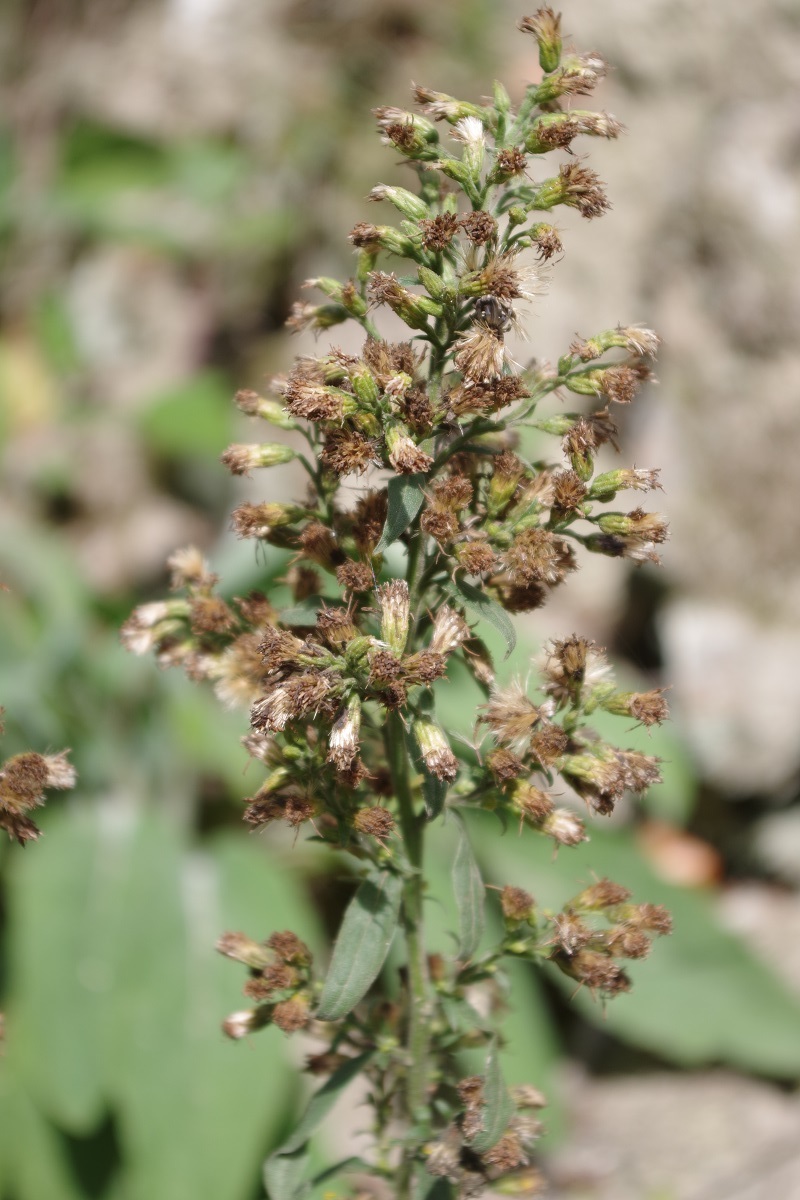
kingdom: Plantae
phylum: Tracheophyta
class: Magnoliopsida
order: Asterales
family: Asteraceae
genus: Solidago
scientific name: Solidago virgaurea
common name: Goldenrod
